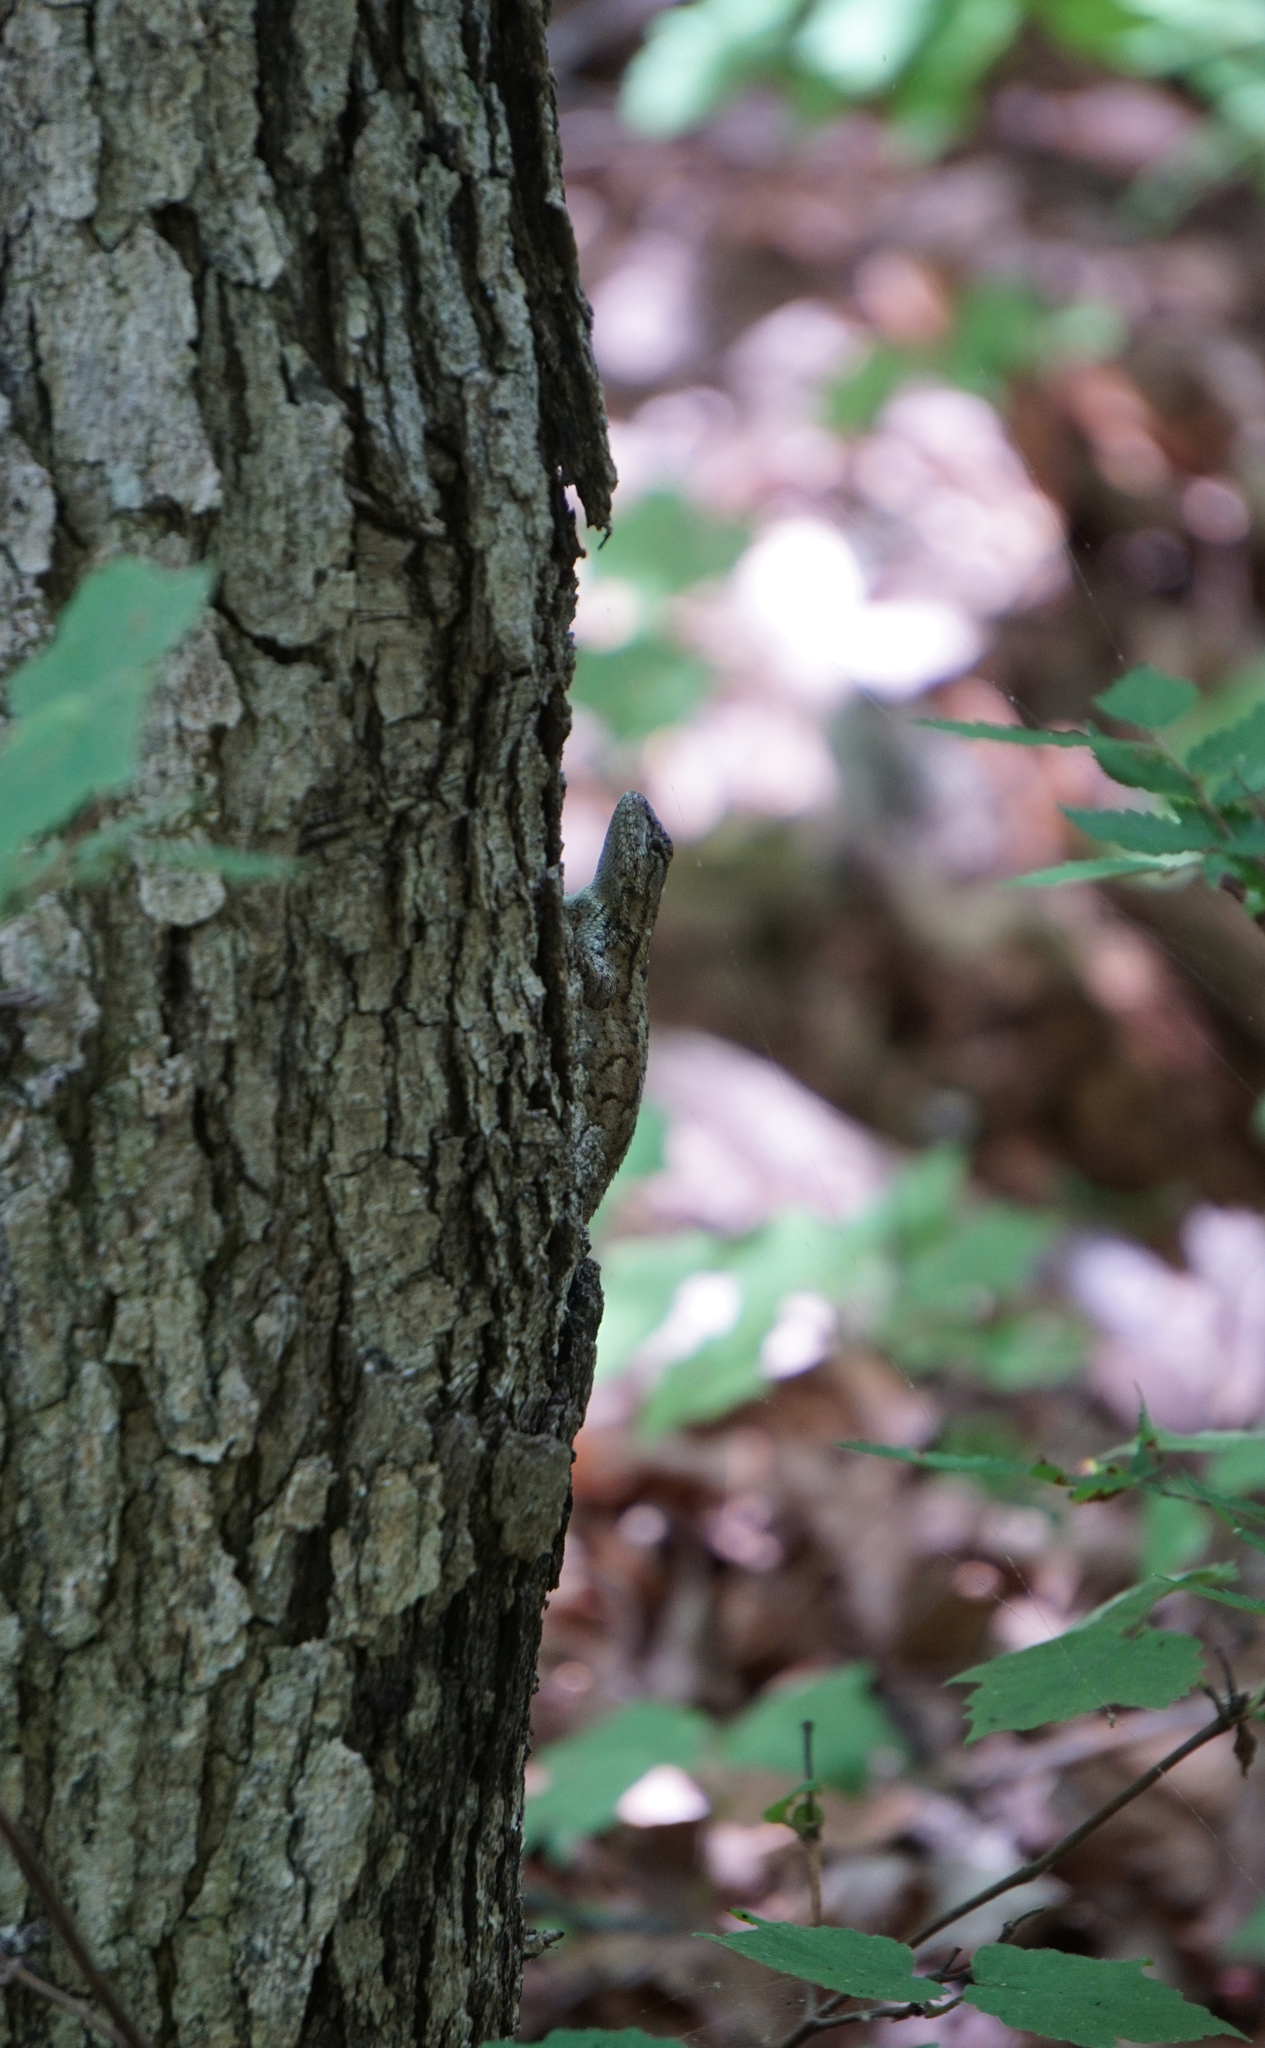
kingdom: Animalia
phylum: Chordata
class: Squamata
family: Phrynosomatidae
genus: Sceloporus
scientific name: Sceloporus undulatus
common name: Eastern fence lizard
